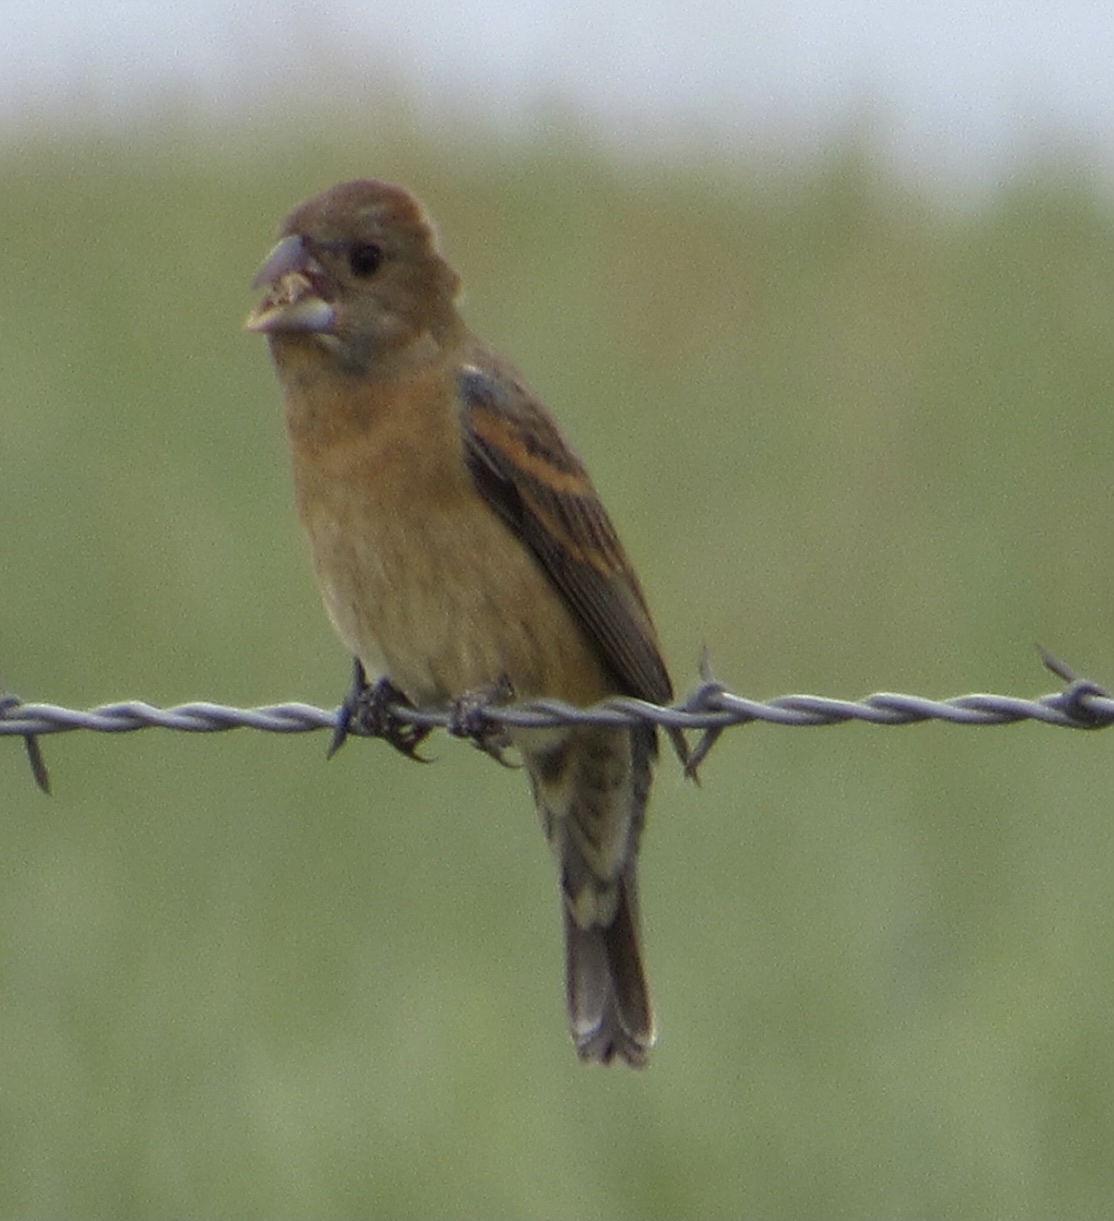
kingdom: Animalia
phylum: Chordata
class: Aves
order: Passeriformes
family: Cardinalidae
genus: Passerina
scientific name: Passerina caerulea
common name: Blue grosbeak
